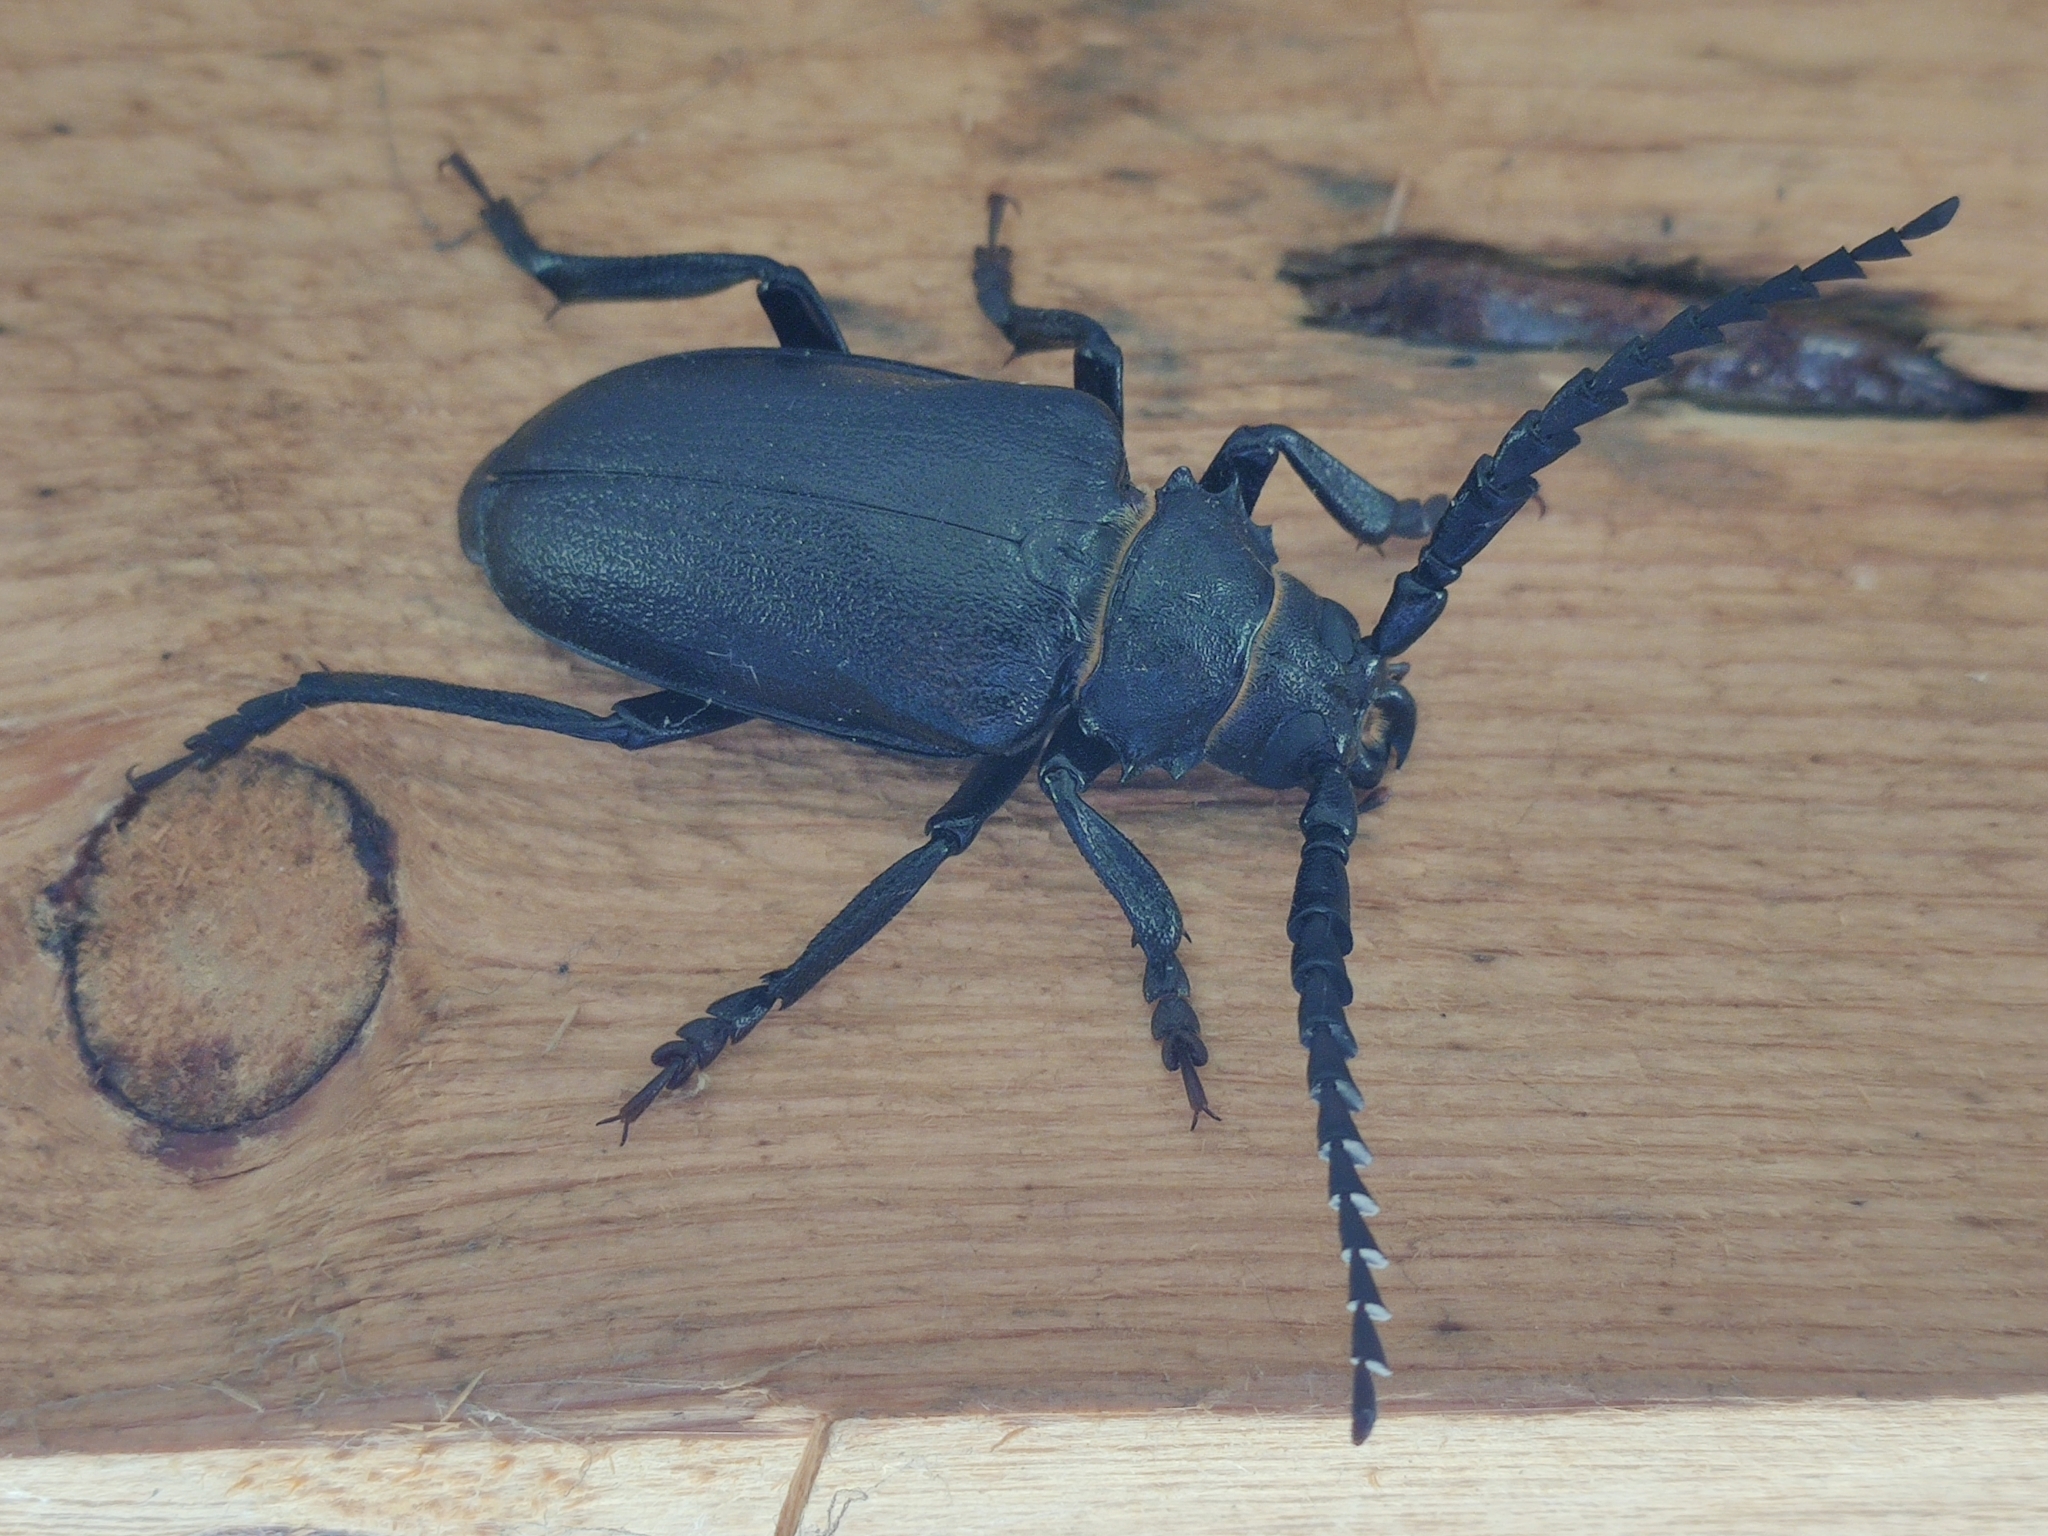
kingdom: Animalia
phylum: Arthropoda
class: Insecta
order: Coleoptera
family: Cerambycidae
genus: Prionus
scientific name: Prionus coriarius
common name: Tanner beetle
